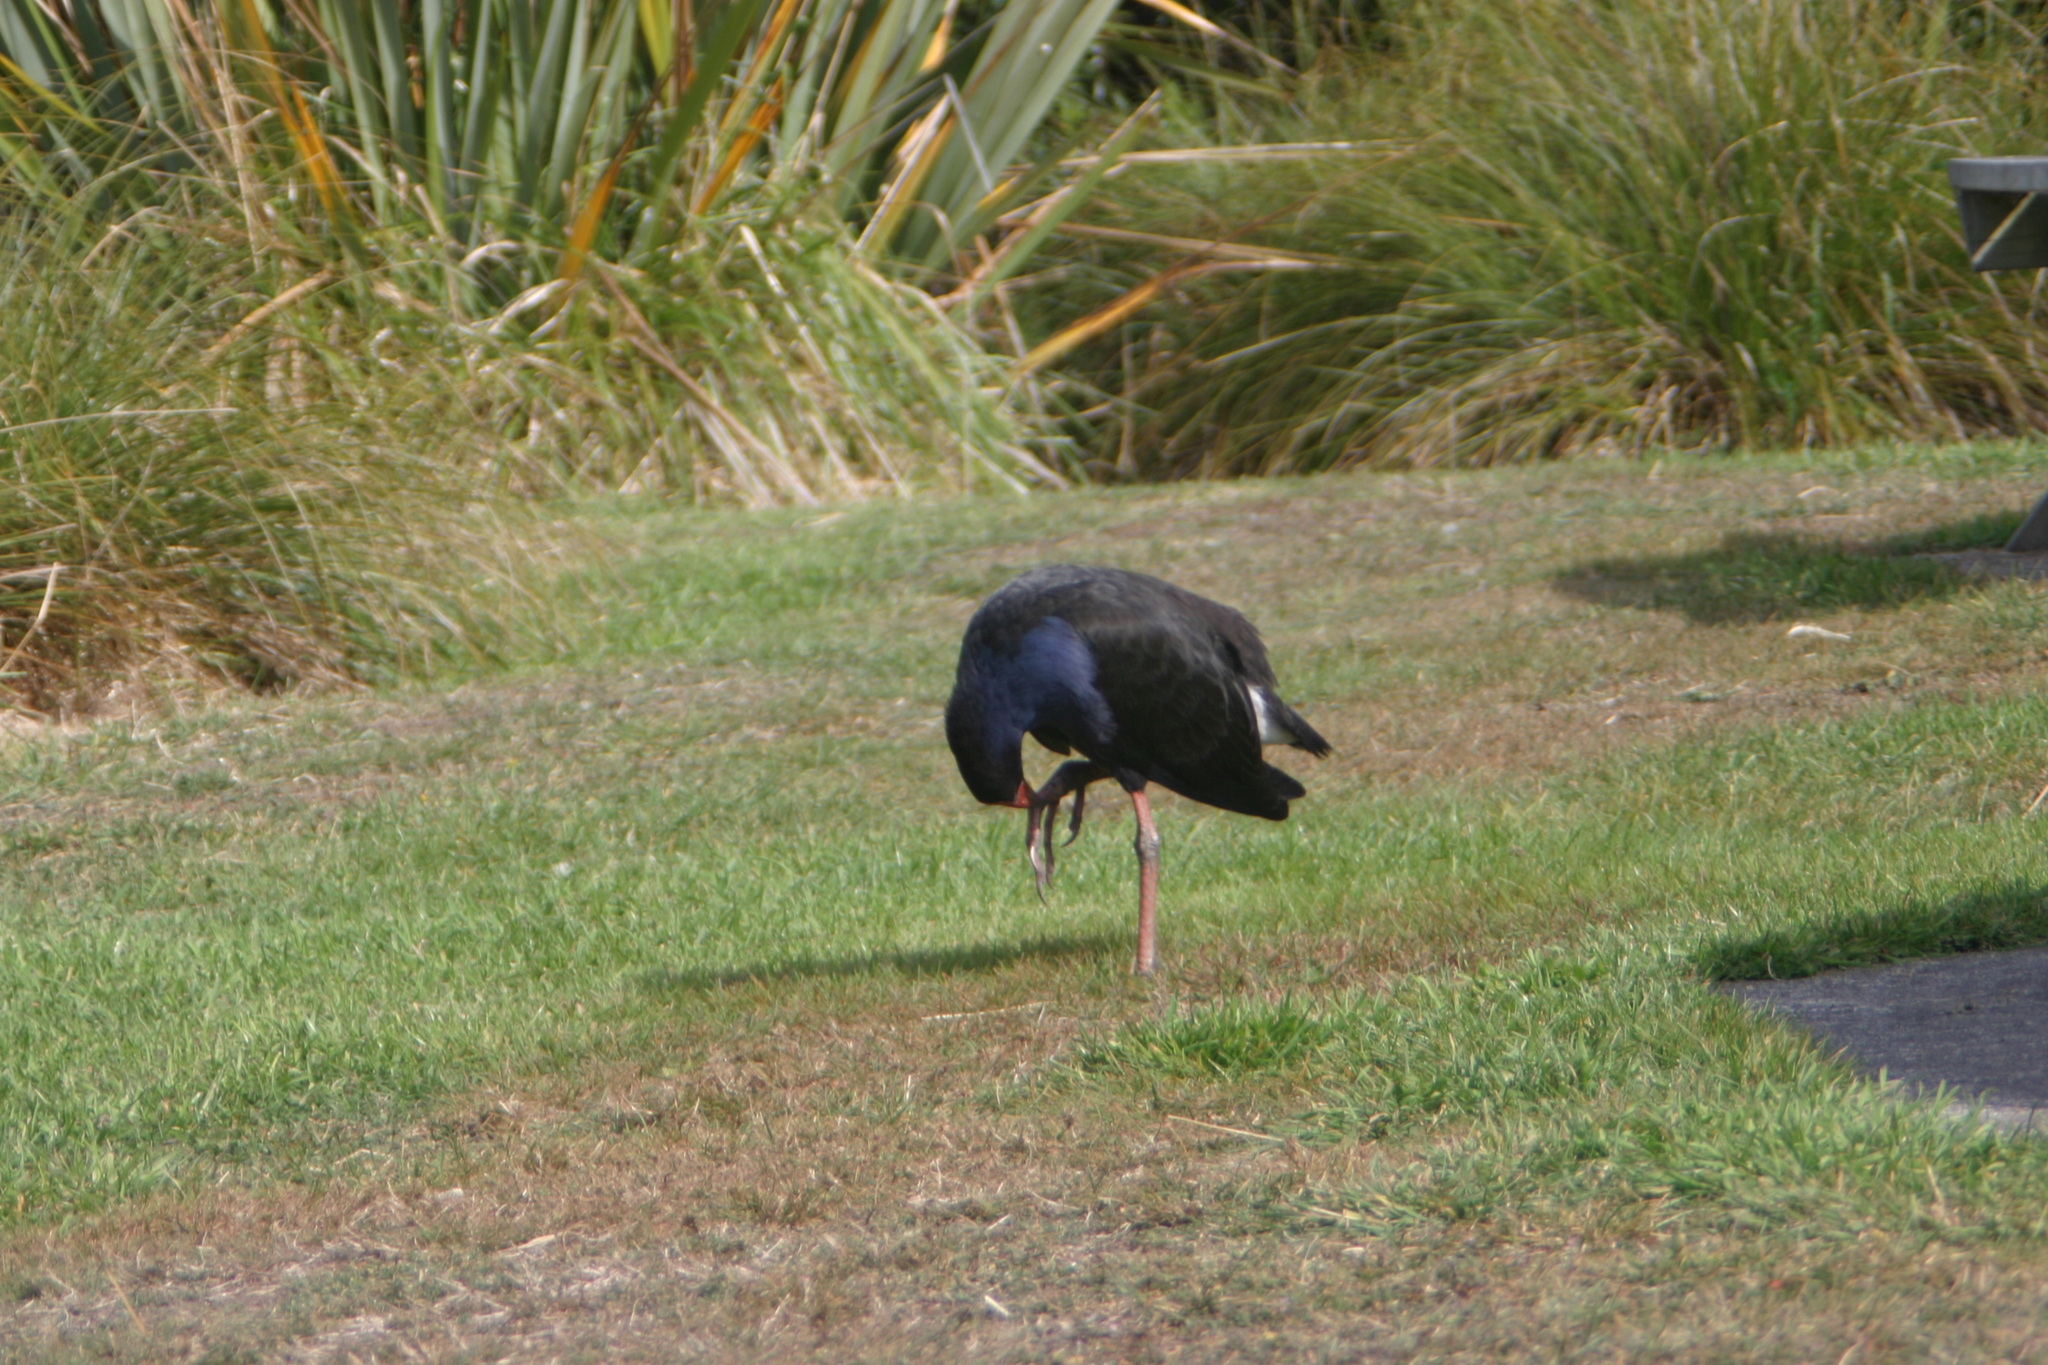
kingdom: Animalia
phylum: Chordata
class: Aves
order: Gruiformes
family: Rallidae
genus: Porphyrio
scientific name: Porphyrio melanotus
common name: Australasian swamphen
